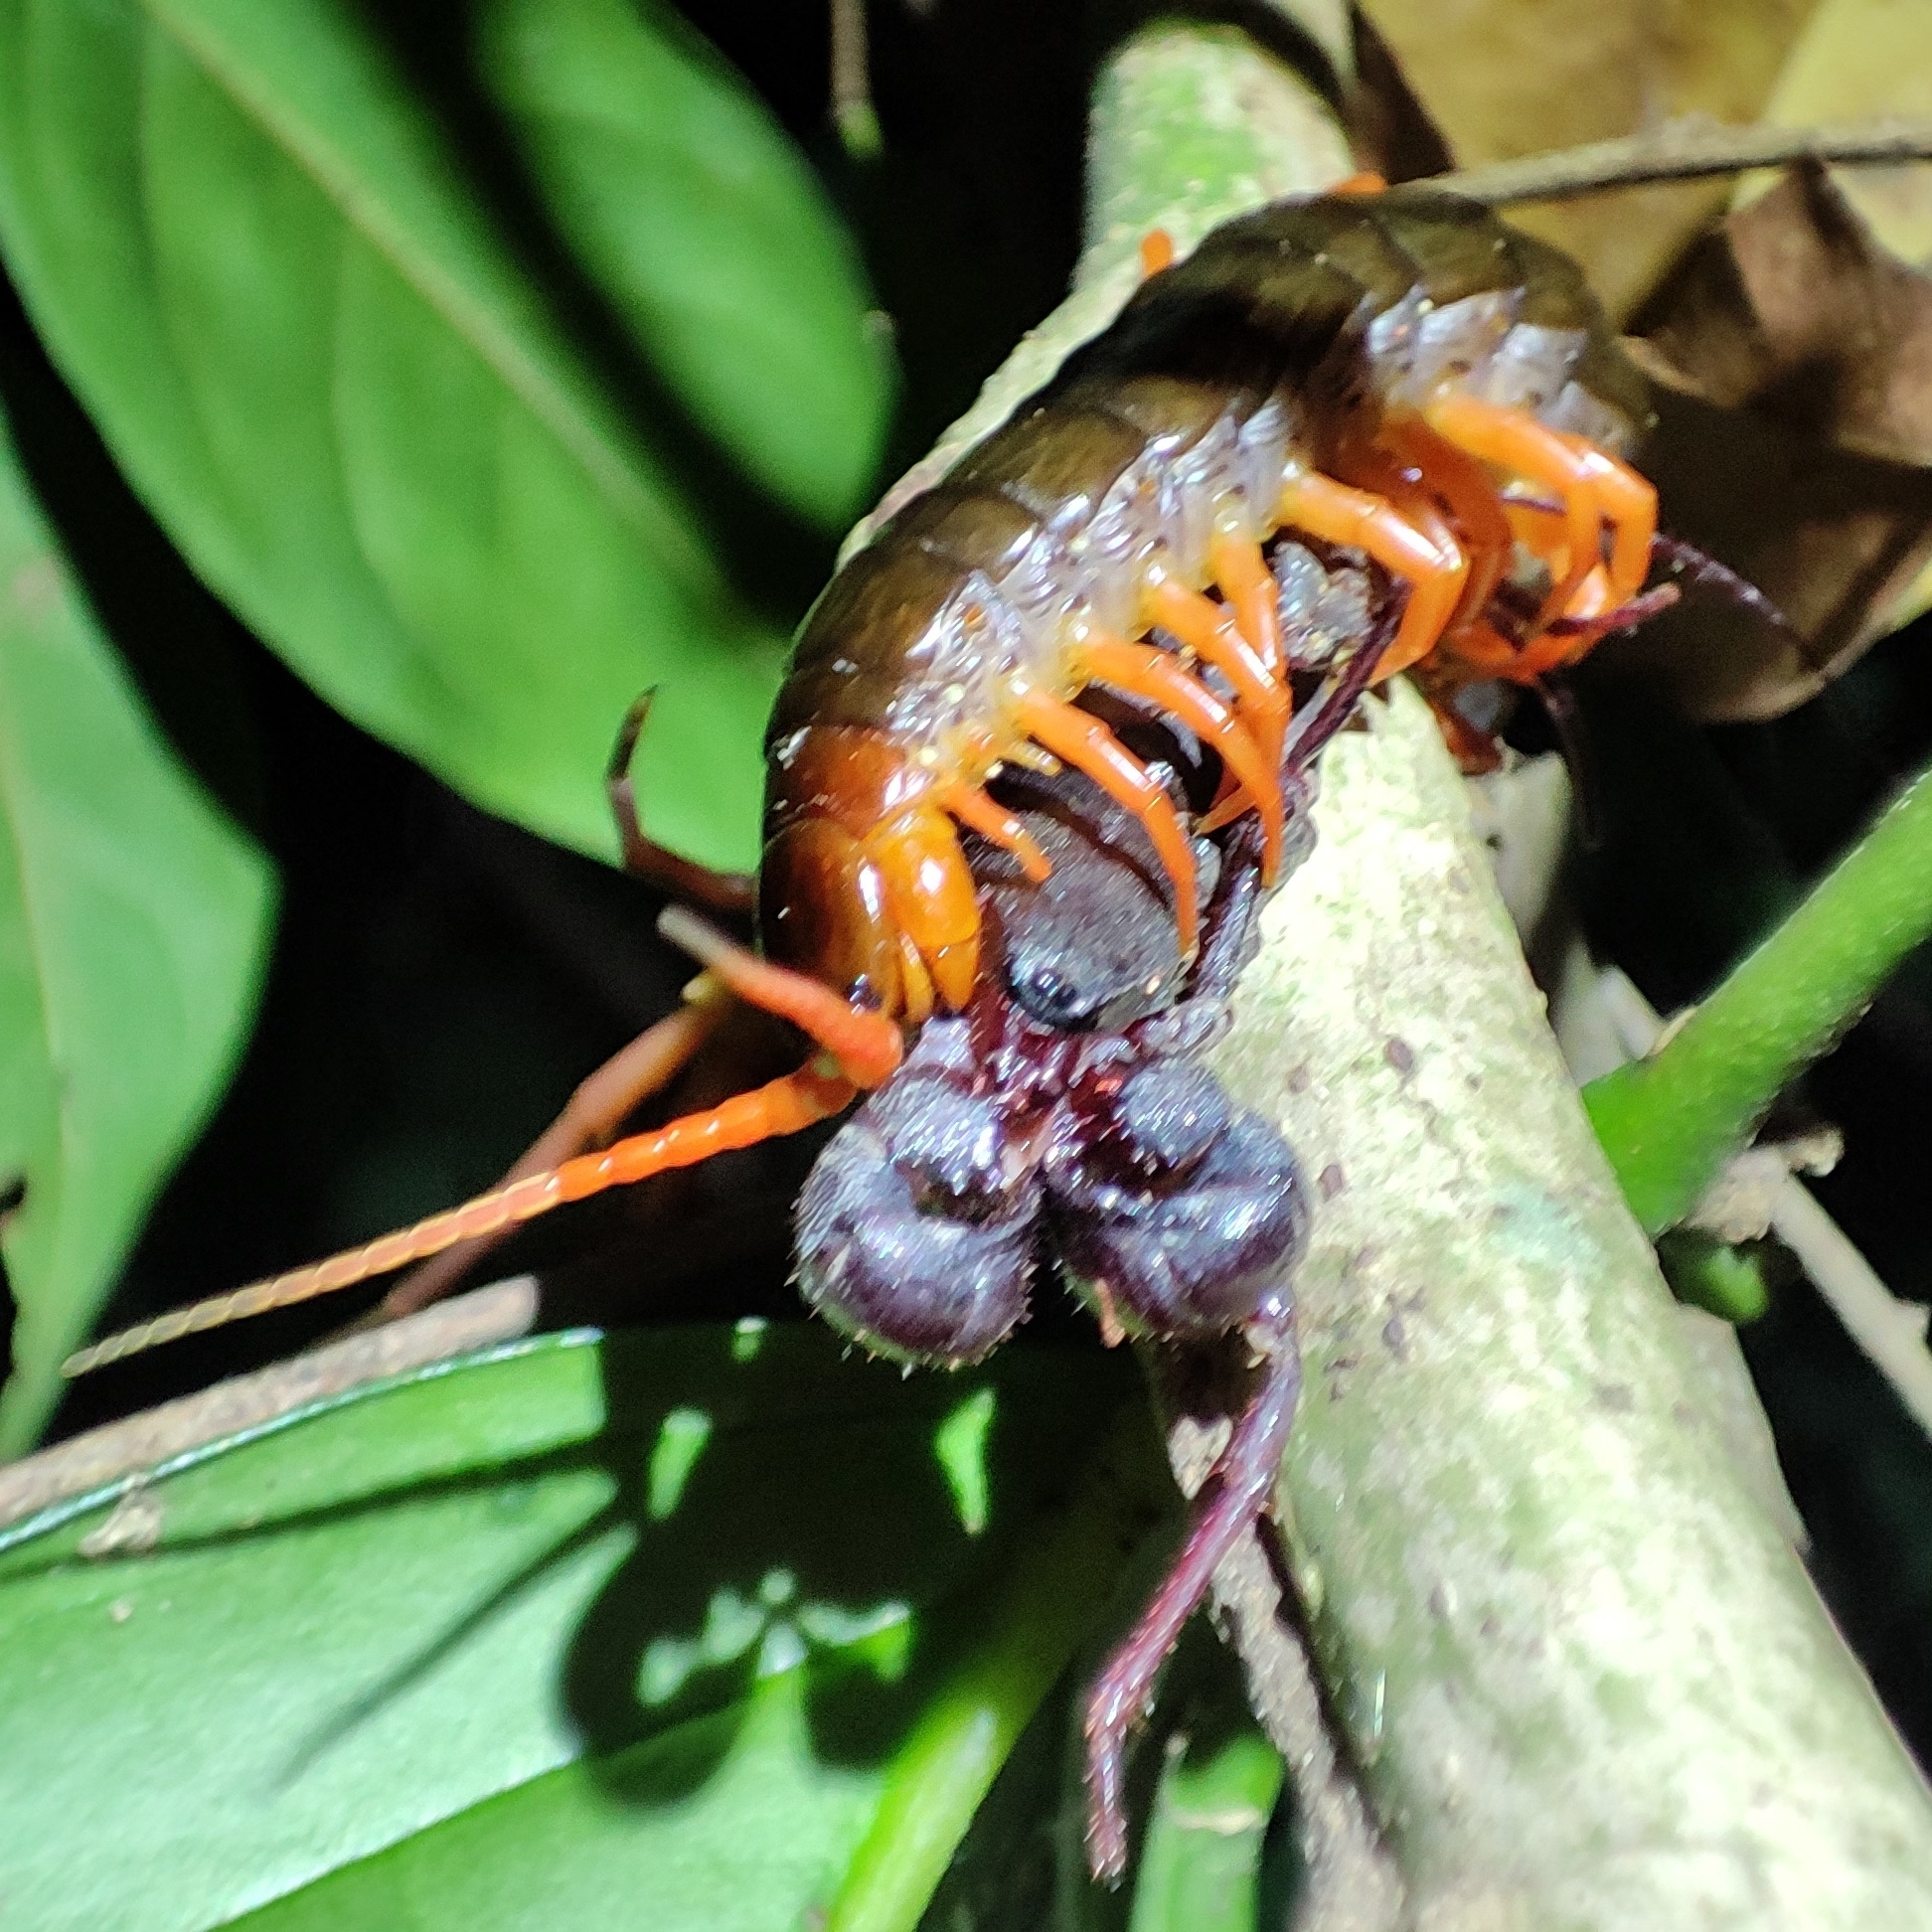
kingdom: Animalia
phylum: Arthropoda
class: Chilopoda
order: Scolopendromorpha
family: Scolopendridae
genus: Scolopendra
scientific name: Scolopendra dehaani
